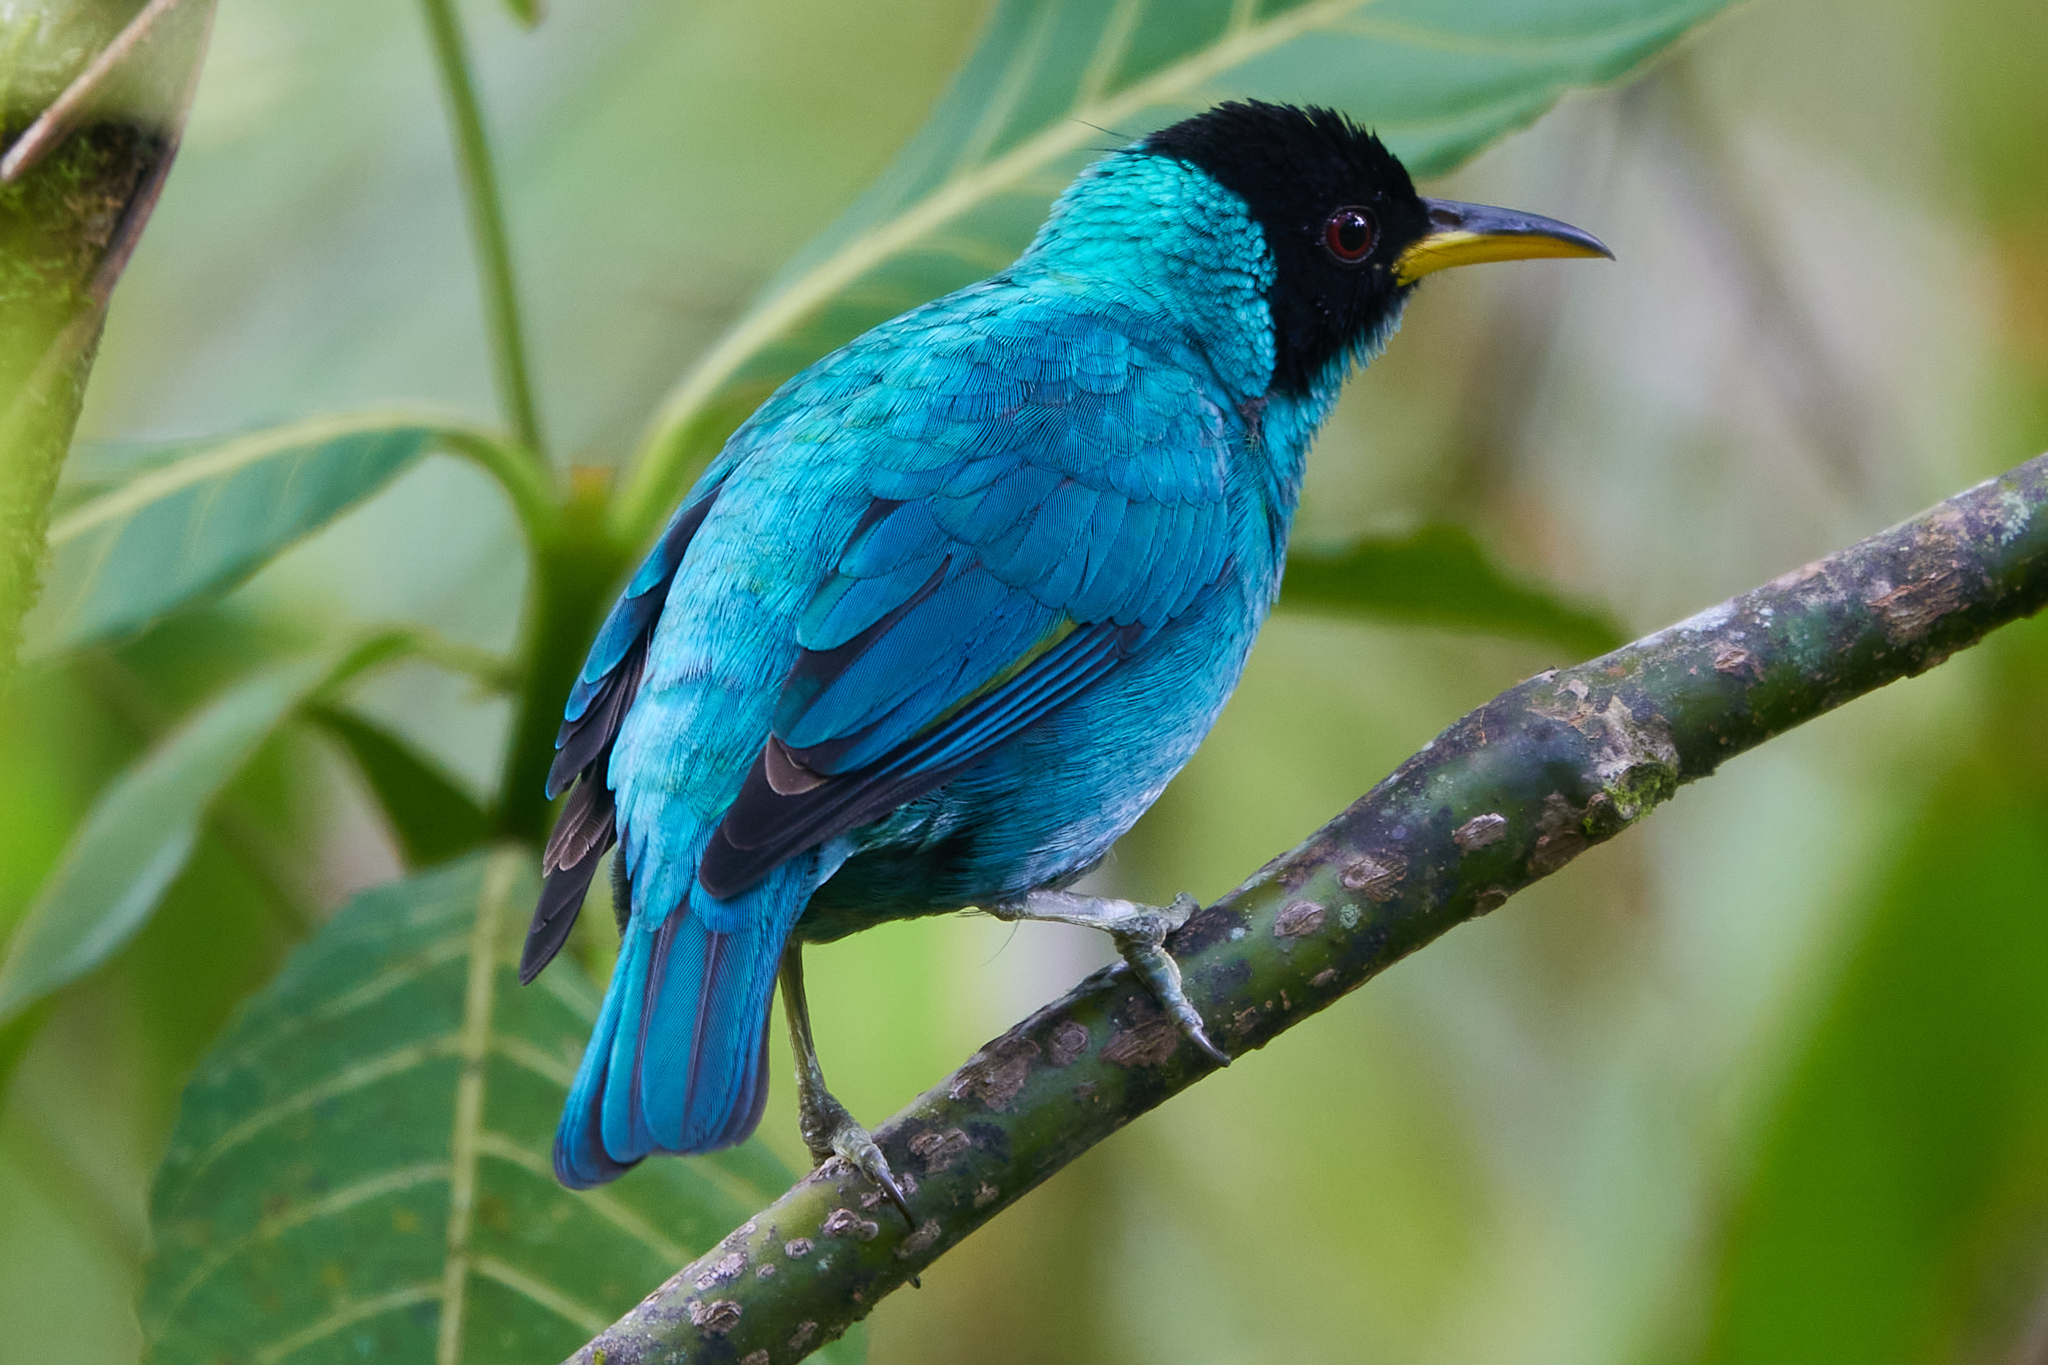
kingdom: Animalia
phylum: Chordata
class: Aves
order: Passeriformes
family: Thraupidae
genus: Chlorophanes
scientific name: Chlorophanes spiza
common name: Green honeycreeper
